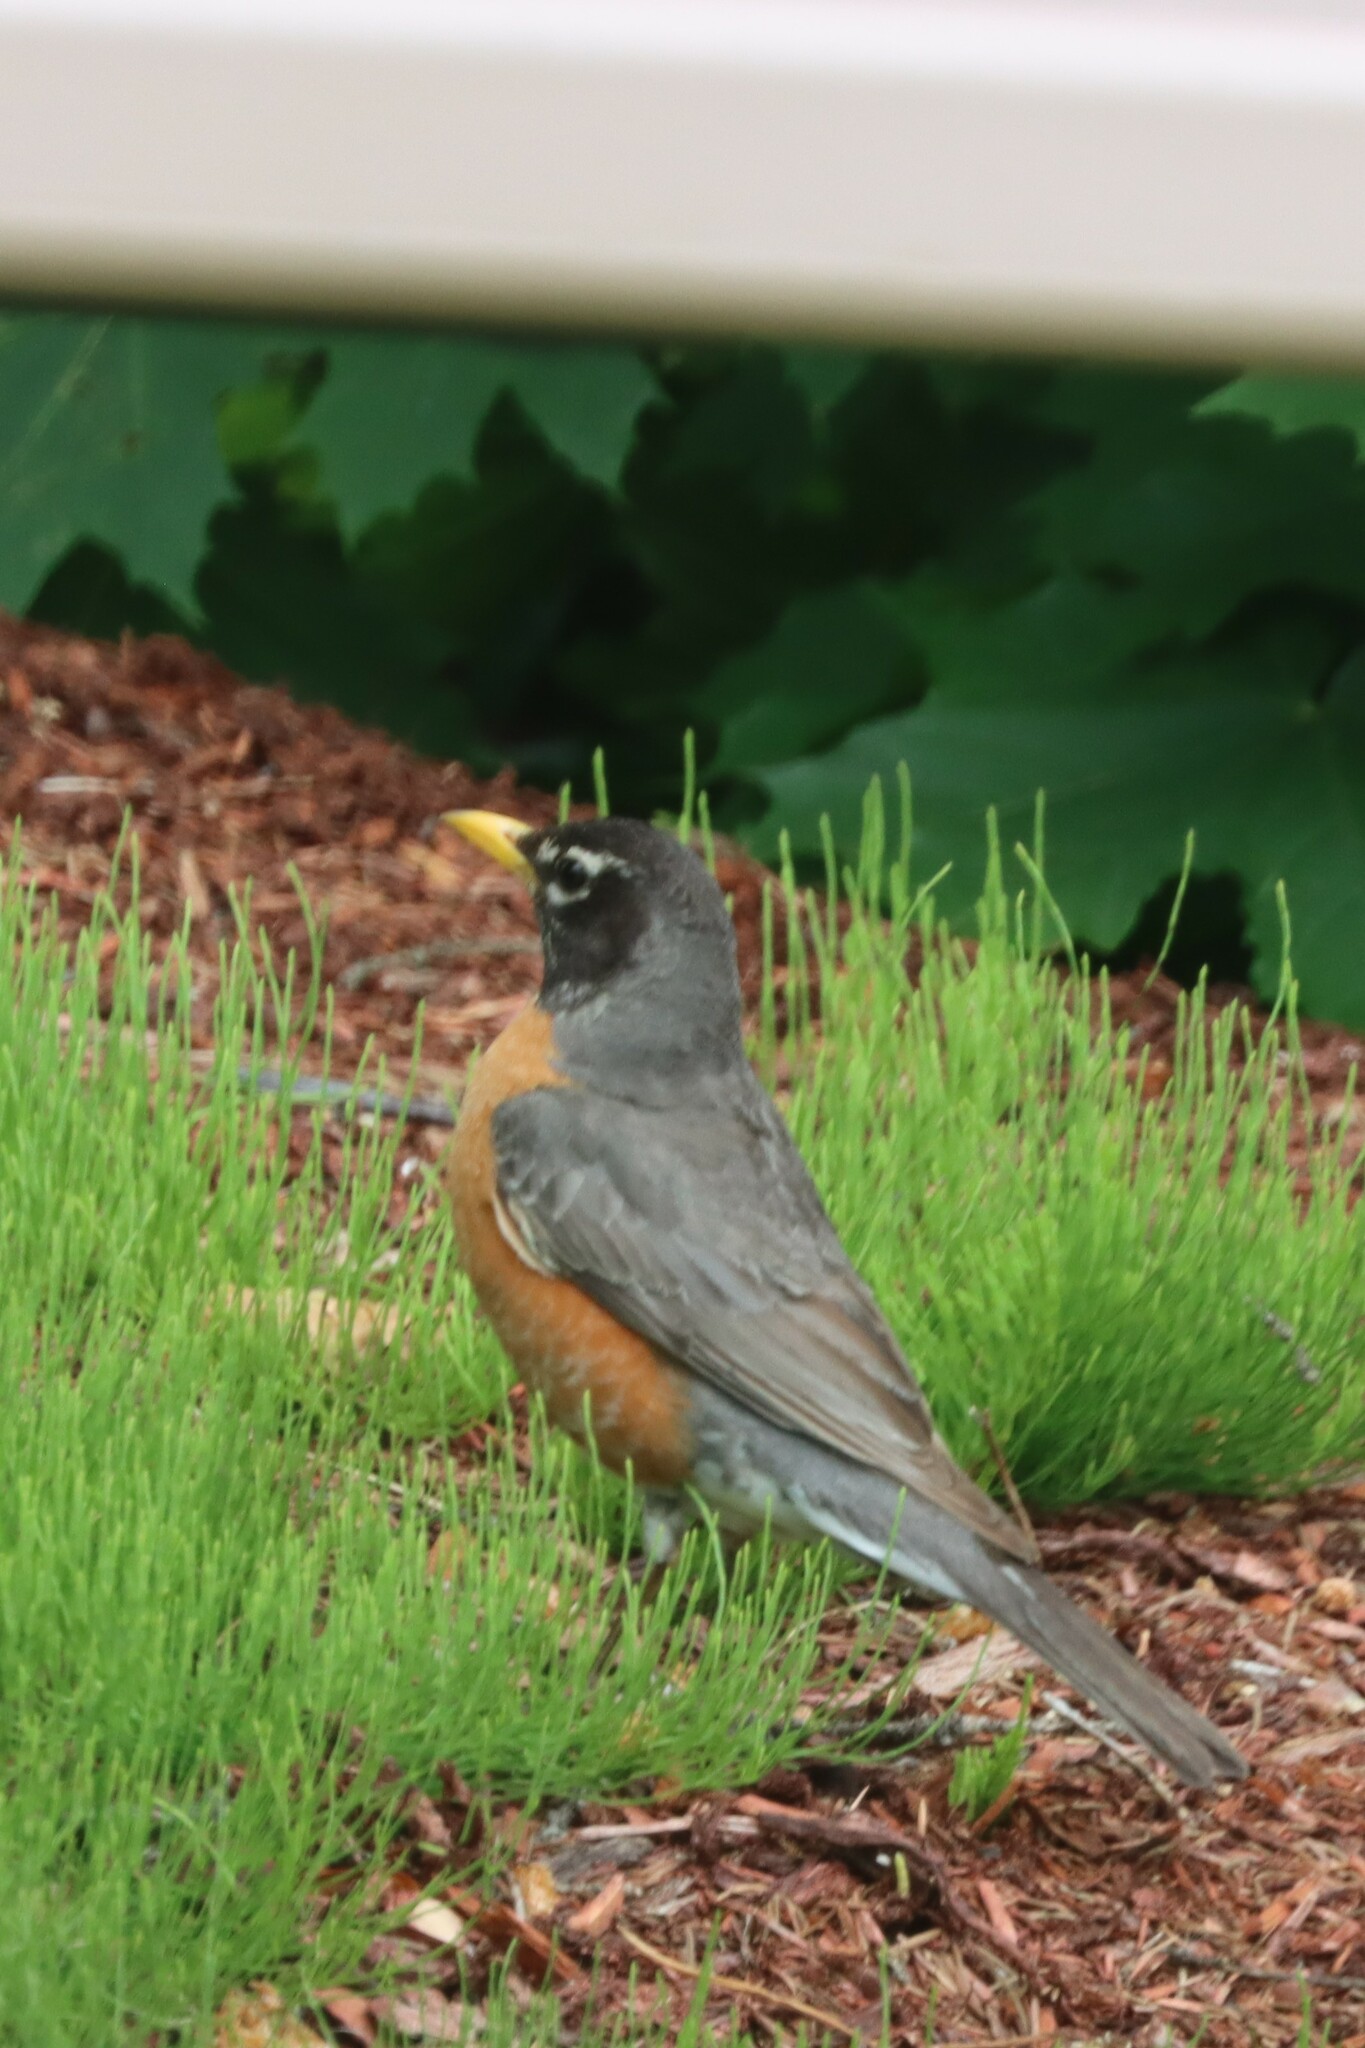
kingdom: Animalia
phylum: Chordata
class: Aves
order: Passeriformes
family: Turdidae
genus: Turdus
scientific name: Turdus migratorius
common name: American robin
